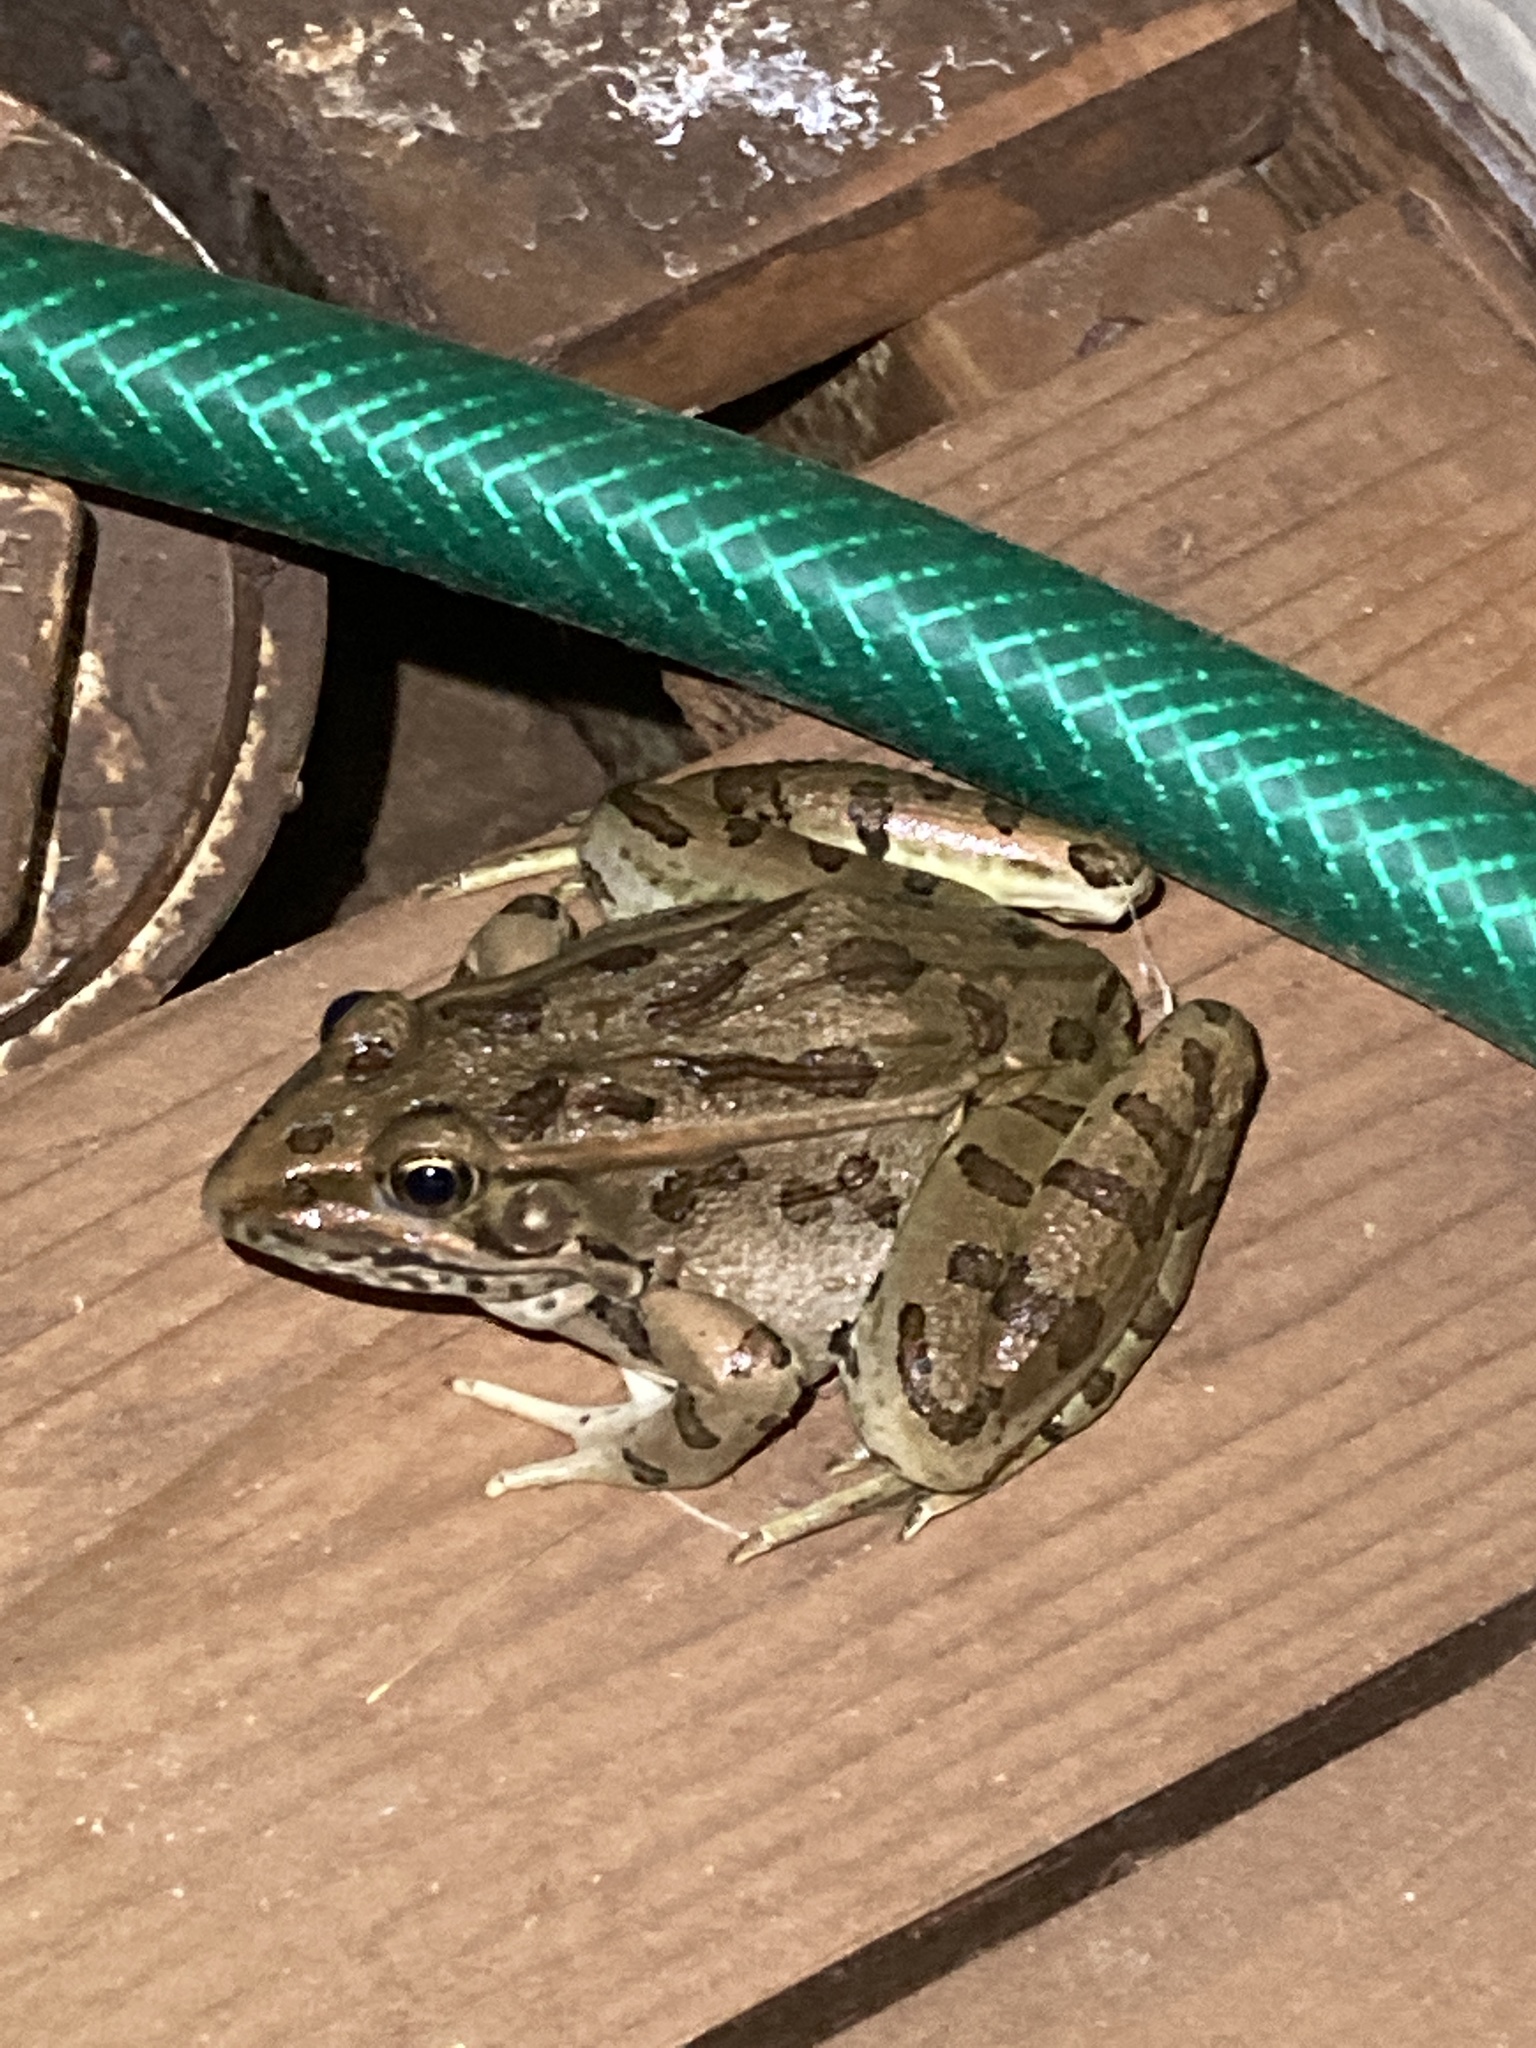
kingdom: Animalia
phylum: Chordata
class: Amphibia
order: Anura
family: Ranidae
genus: Lithobates
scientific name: Lithobates blairi
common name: Plains leopard frog
